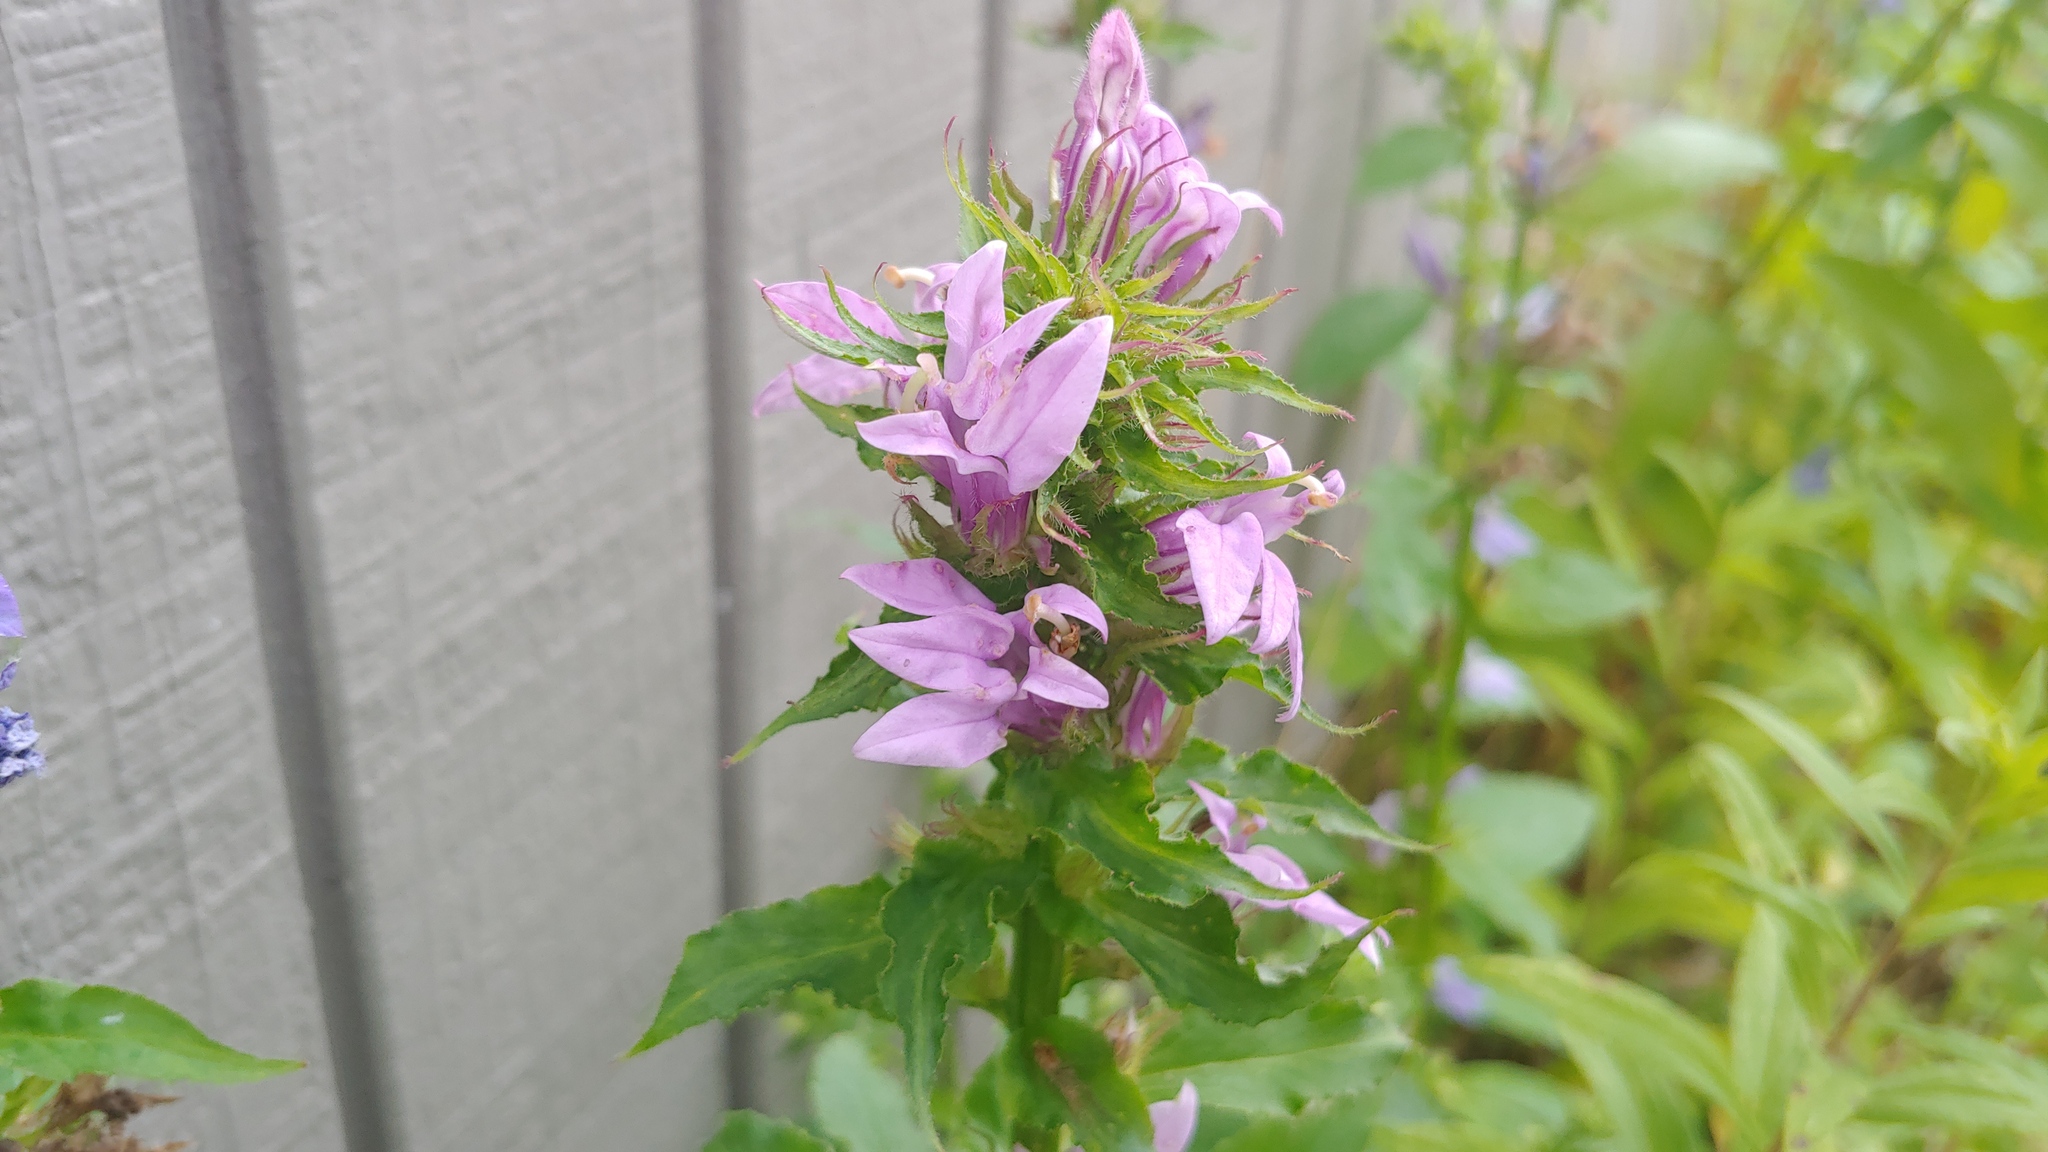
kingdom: Plantae
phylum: Tracheophyta
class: Magnoliopsida
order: Asterales
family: Campanulaceae
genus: Lobelia
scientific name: Lobelia siphilitica
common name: Great lobelia
